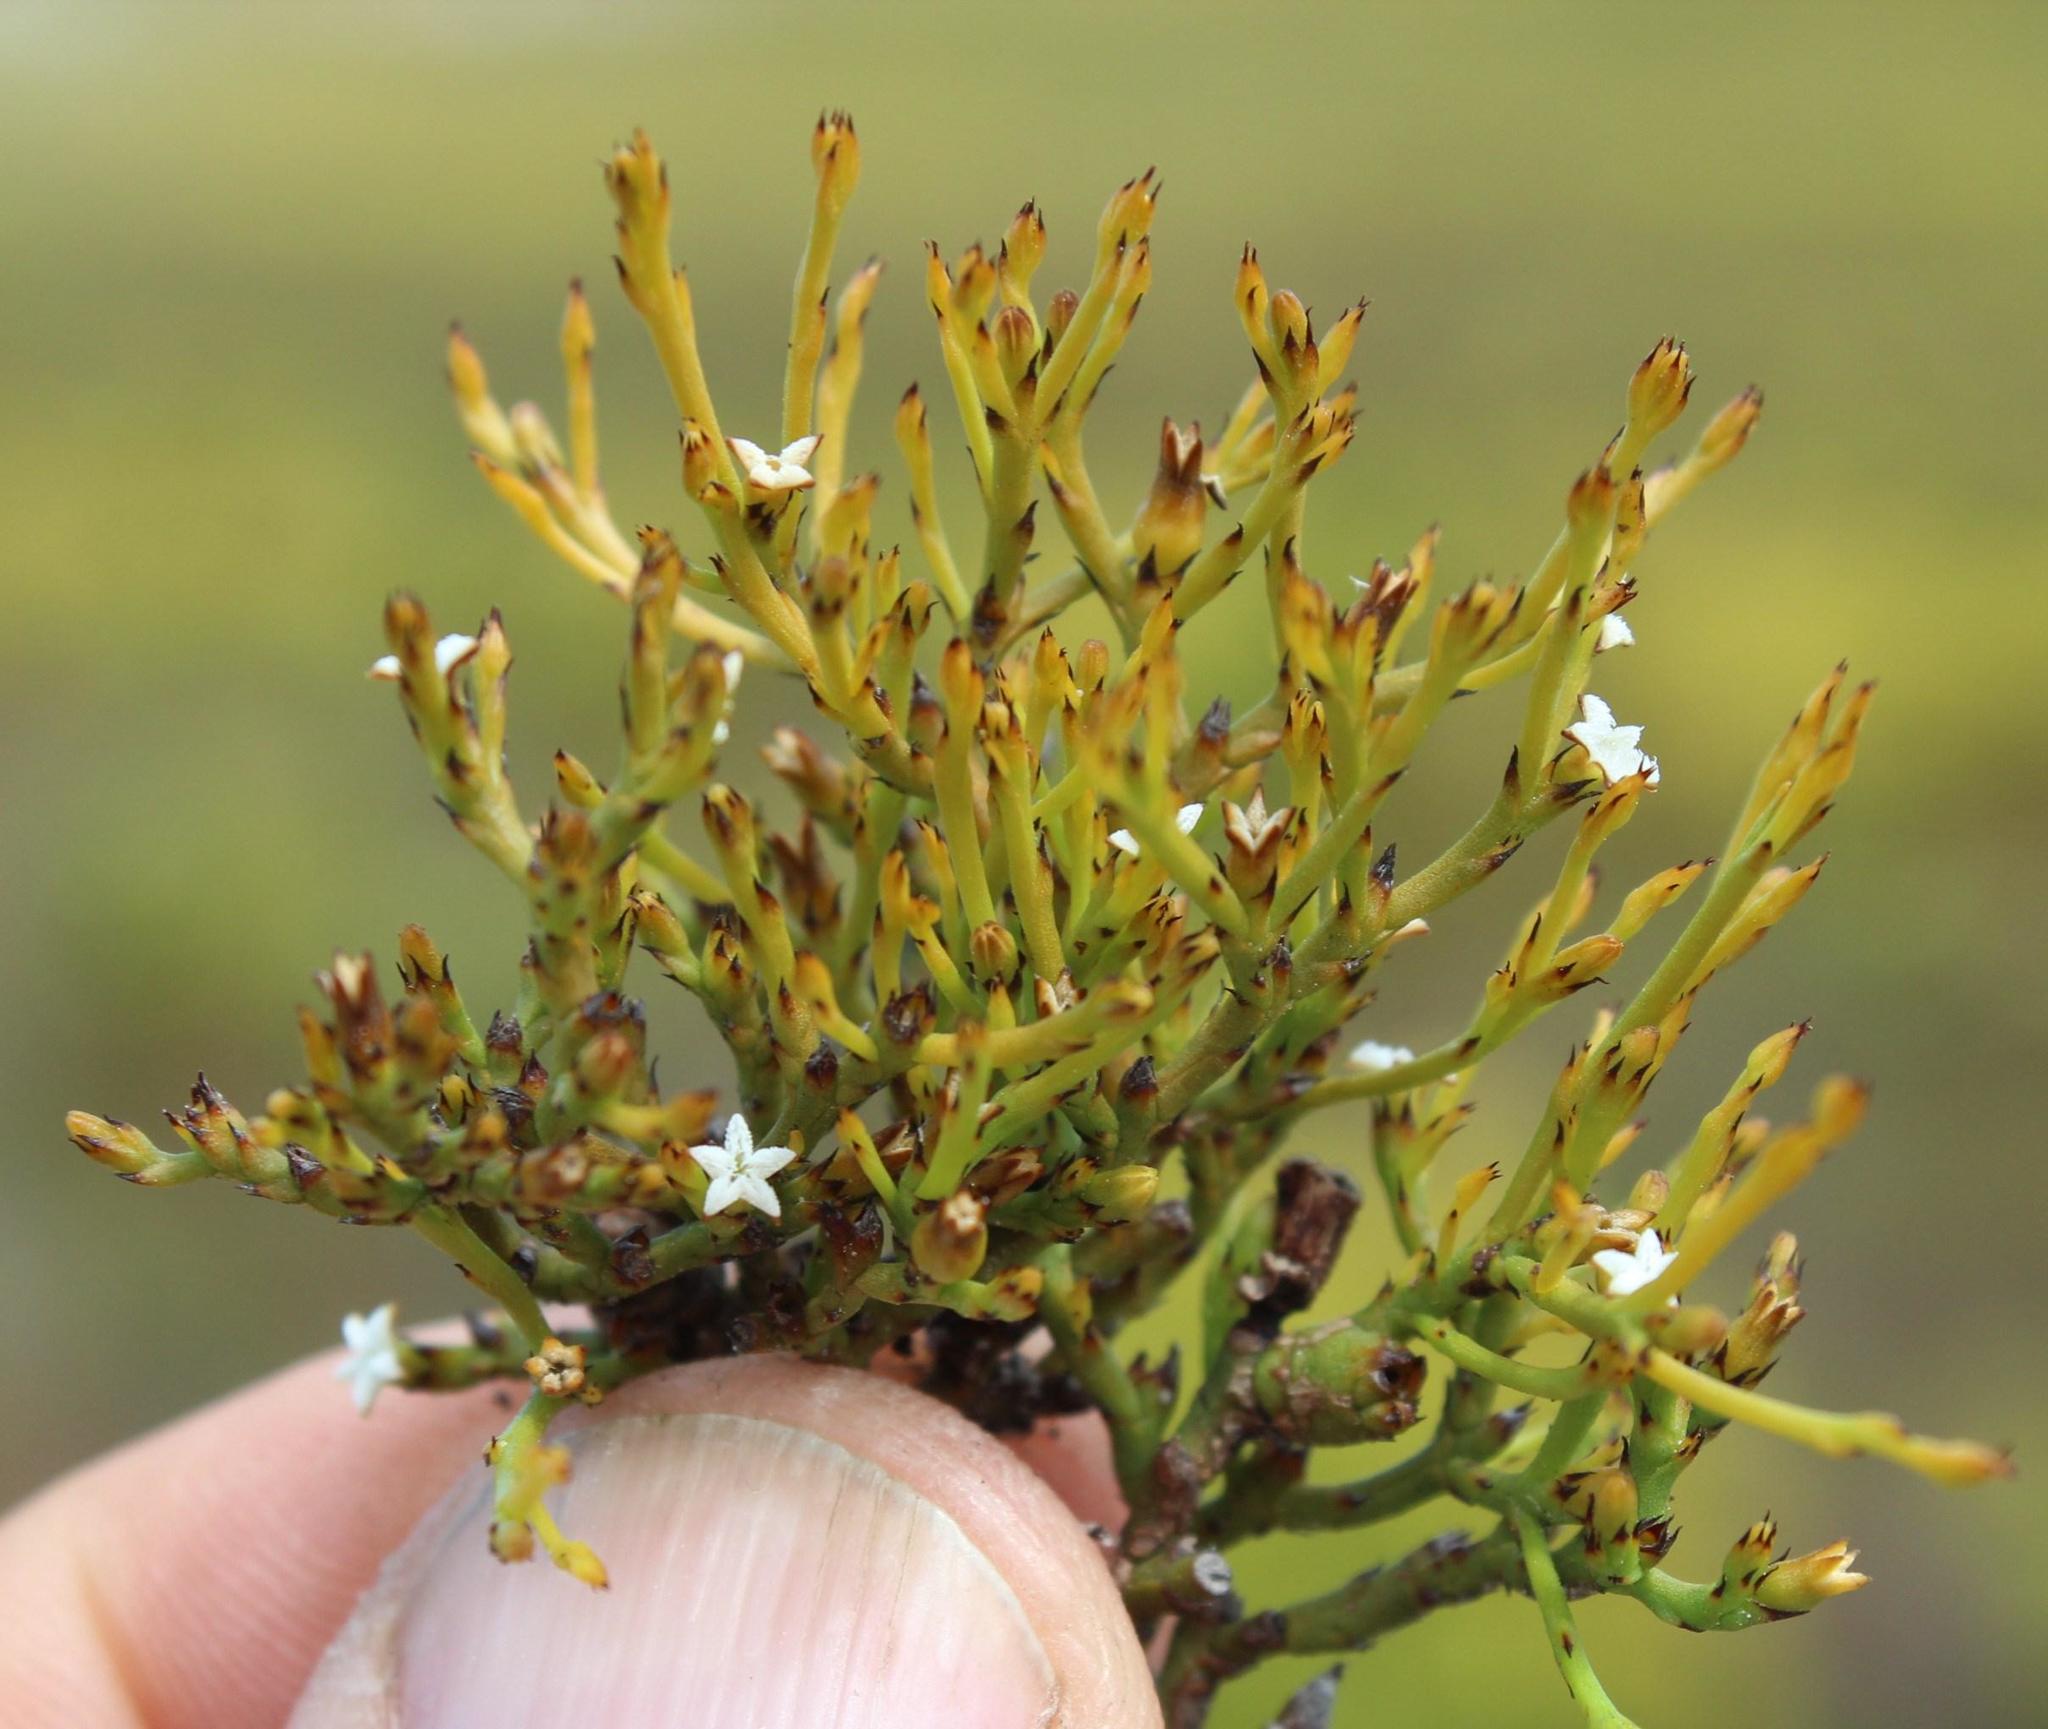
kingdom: Plantae
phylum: Tracheophyta
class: Magnoliopsida
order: Santalales
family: Thesiaceae
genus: Thesium
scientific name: Thesium acuminatum
